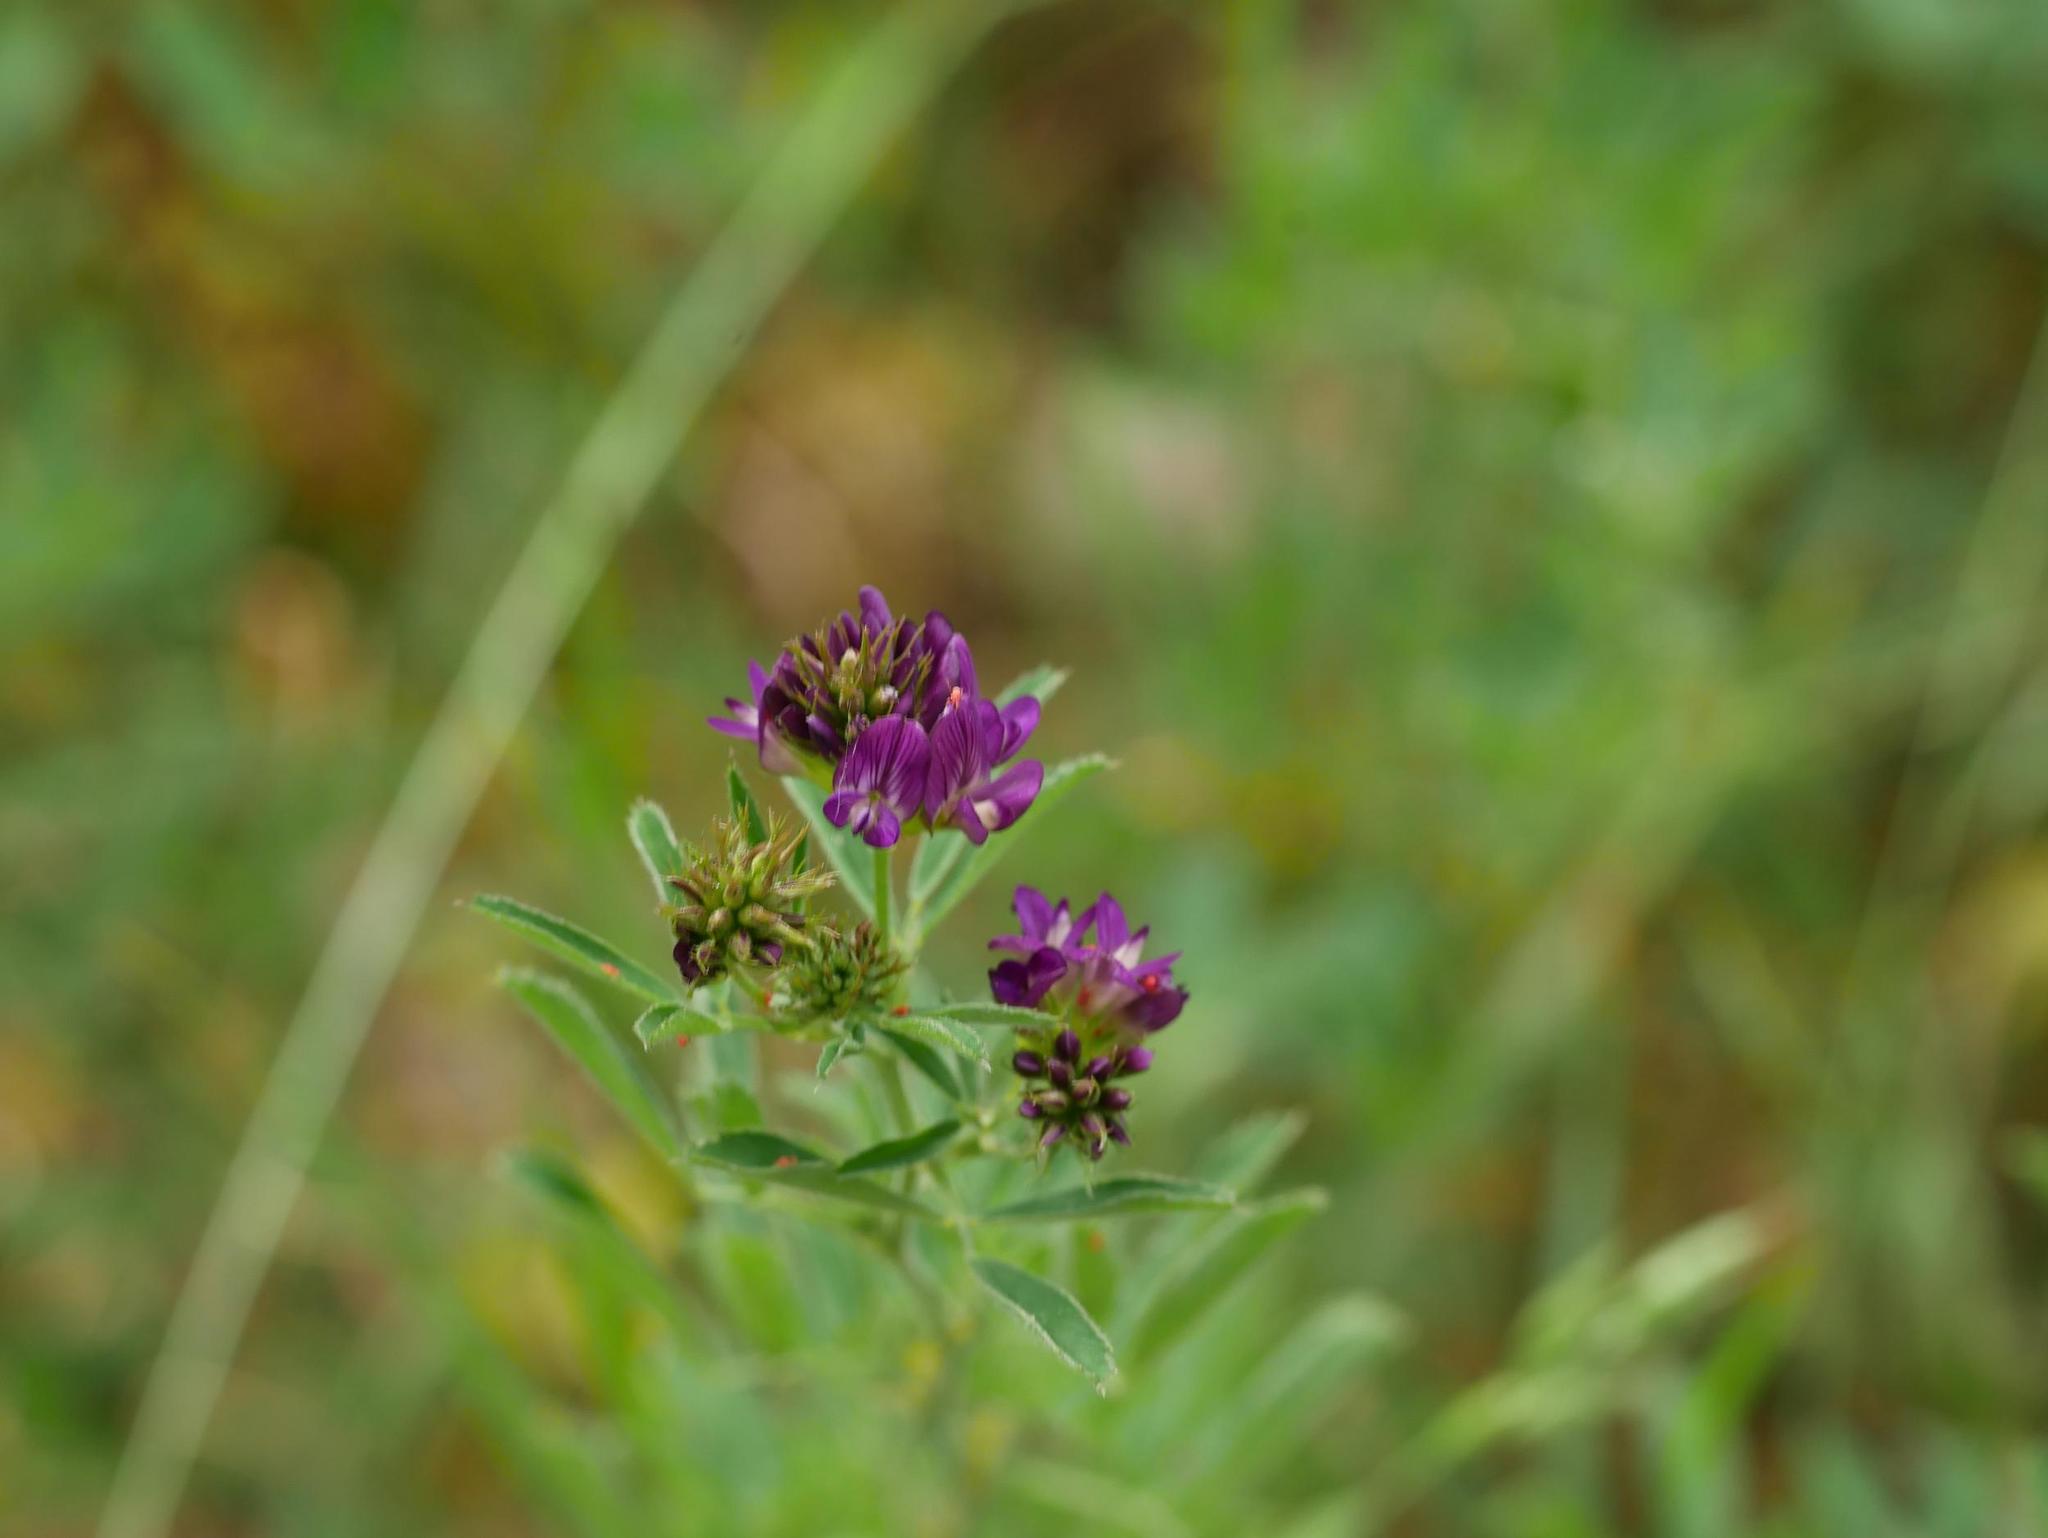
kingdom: Plantae
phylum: Tracheophyta
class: Magnoliopsida
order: Fabales
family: Fabaceae
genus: Medicago
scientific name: Medicago sativa
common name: Alfalfa
